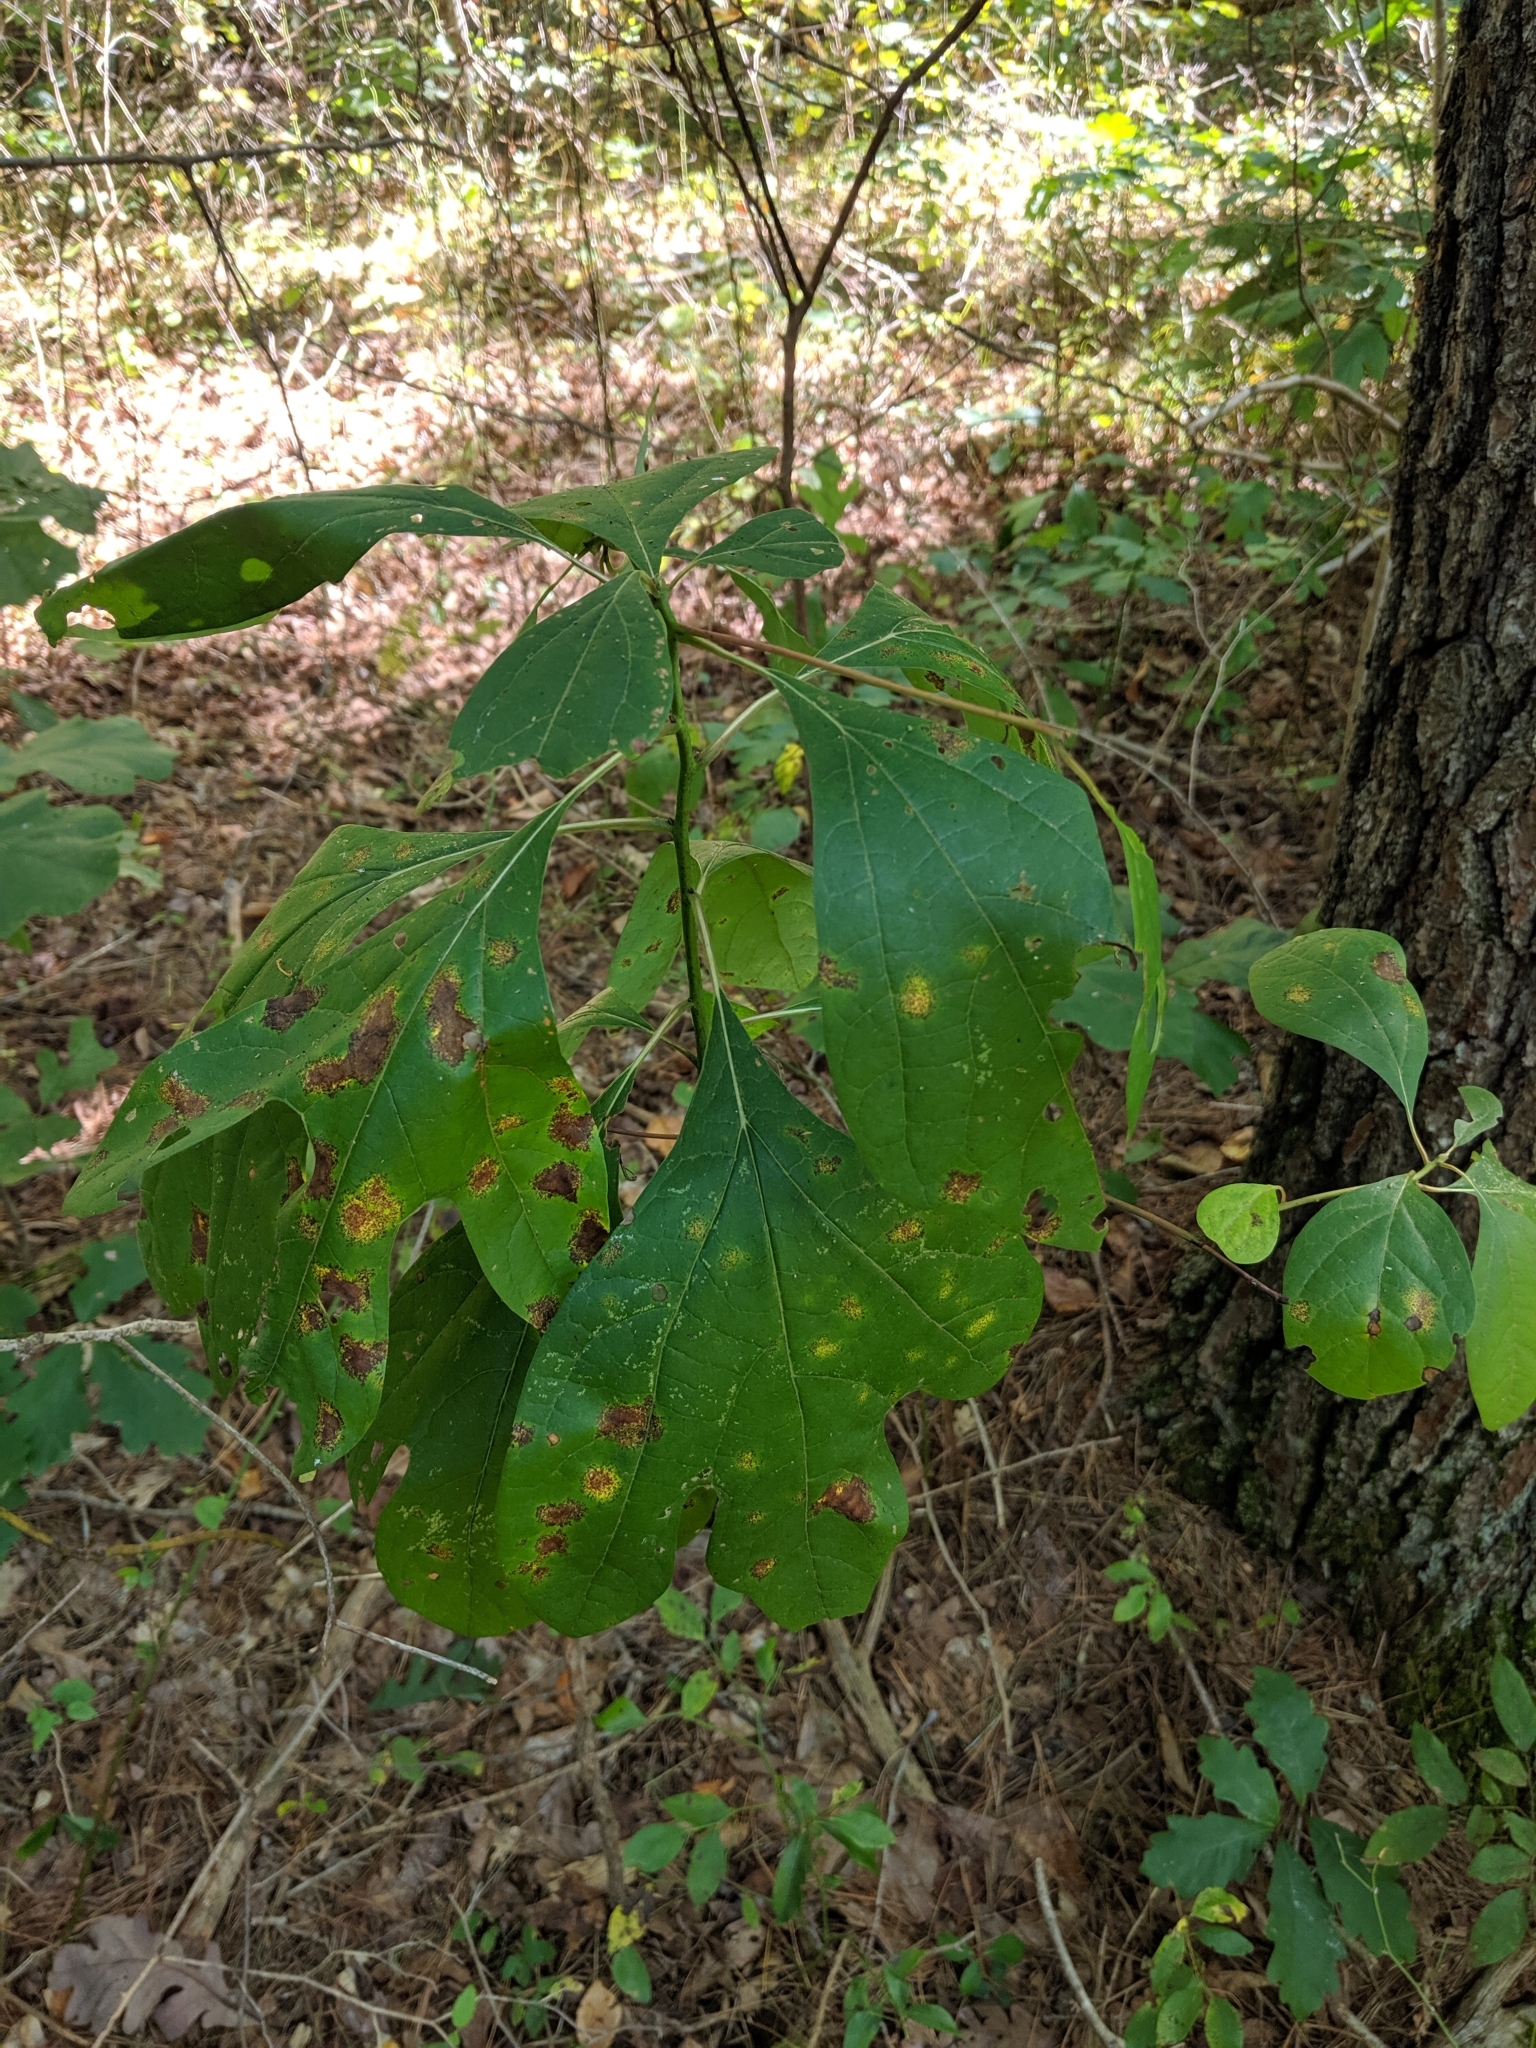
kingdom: Plantae
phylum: Tracheophyta
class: Magnoliopsida
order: Laurales
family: Lauraceae
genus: Sassafras
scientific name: Sassafras albidum
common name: Sassafras
